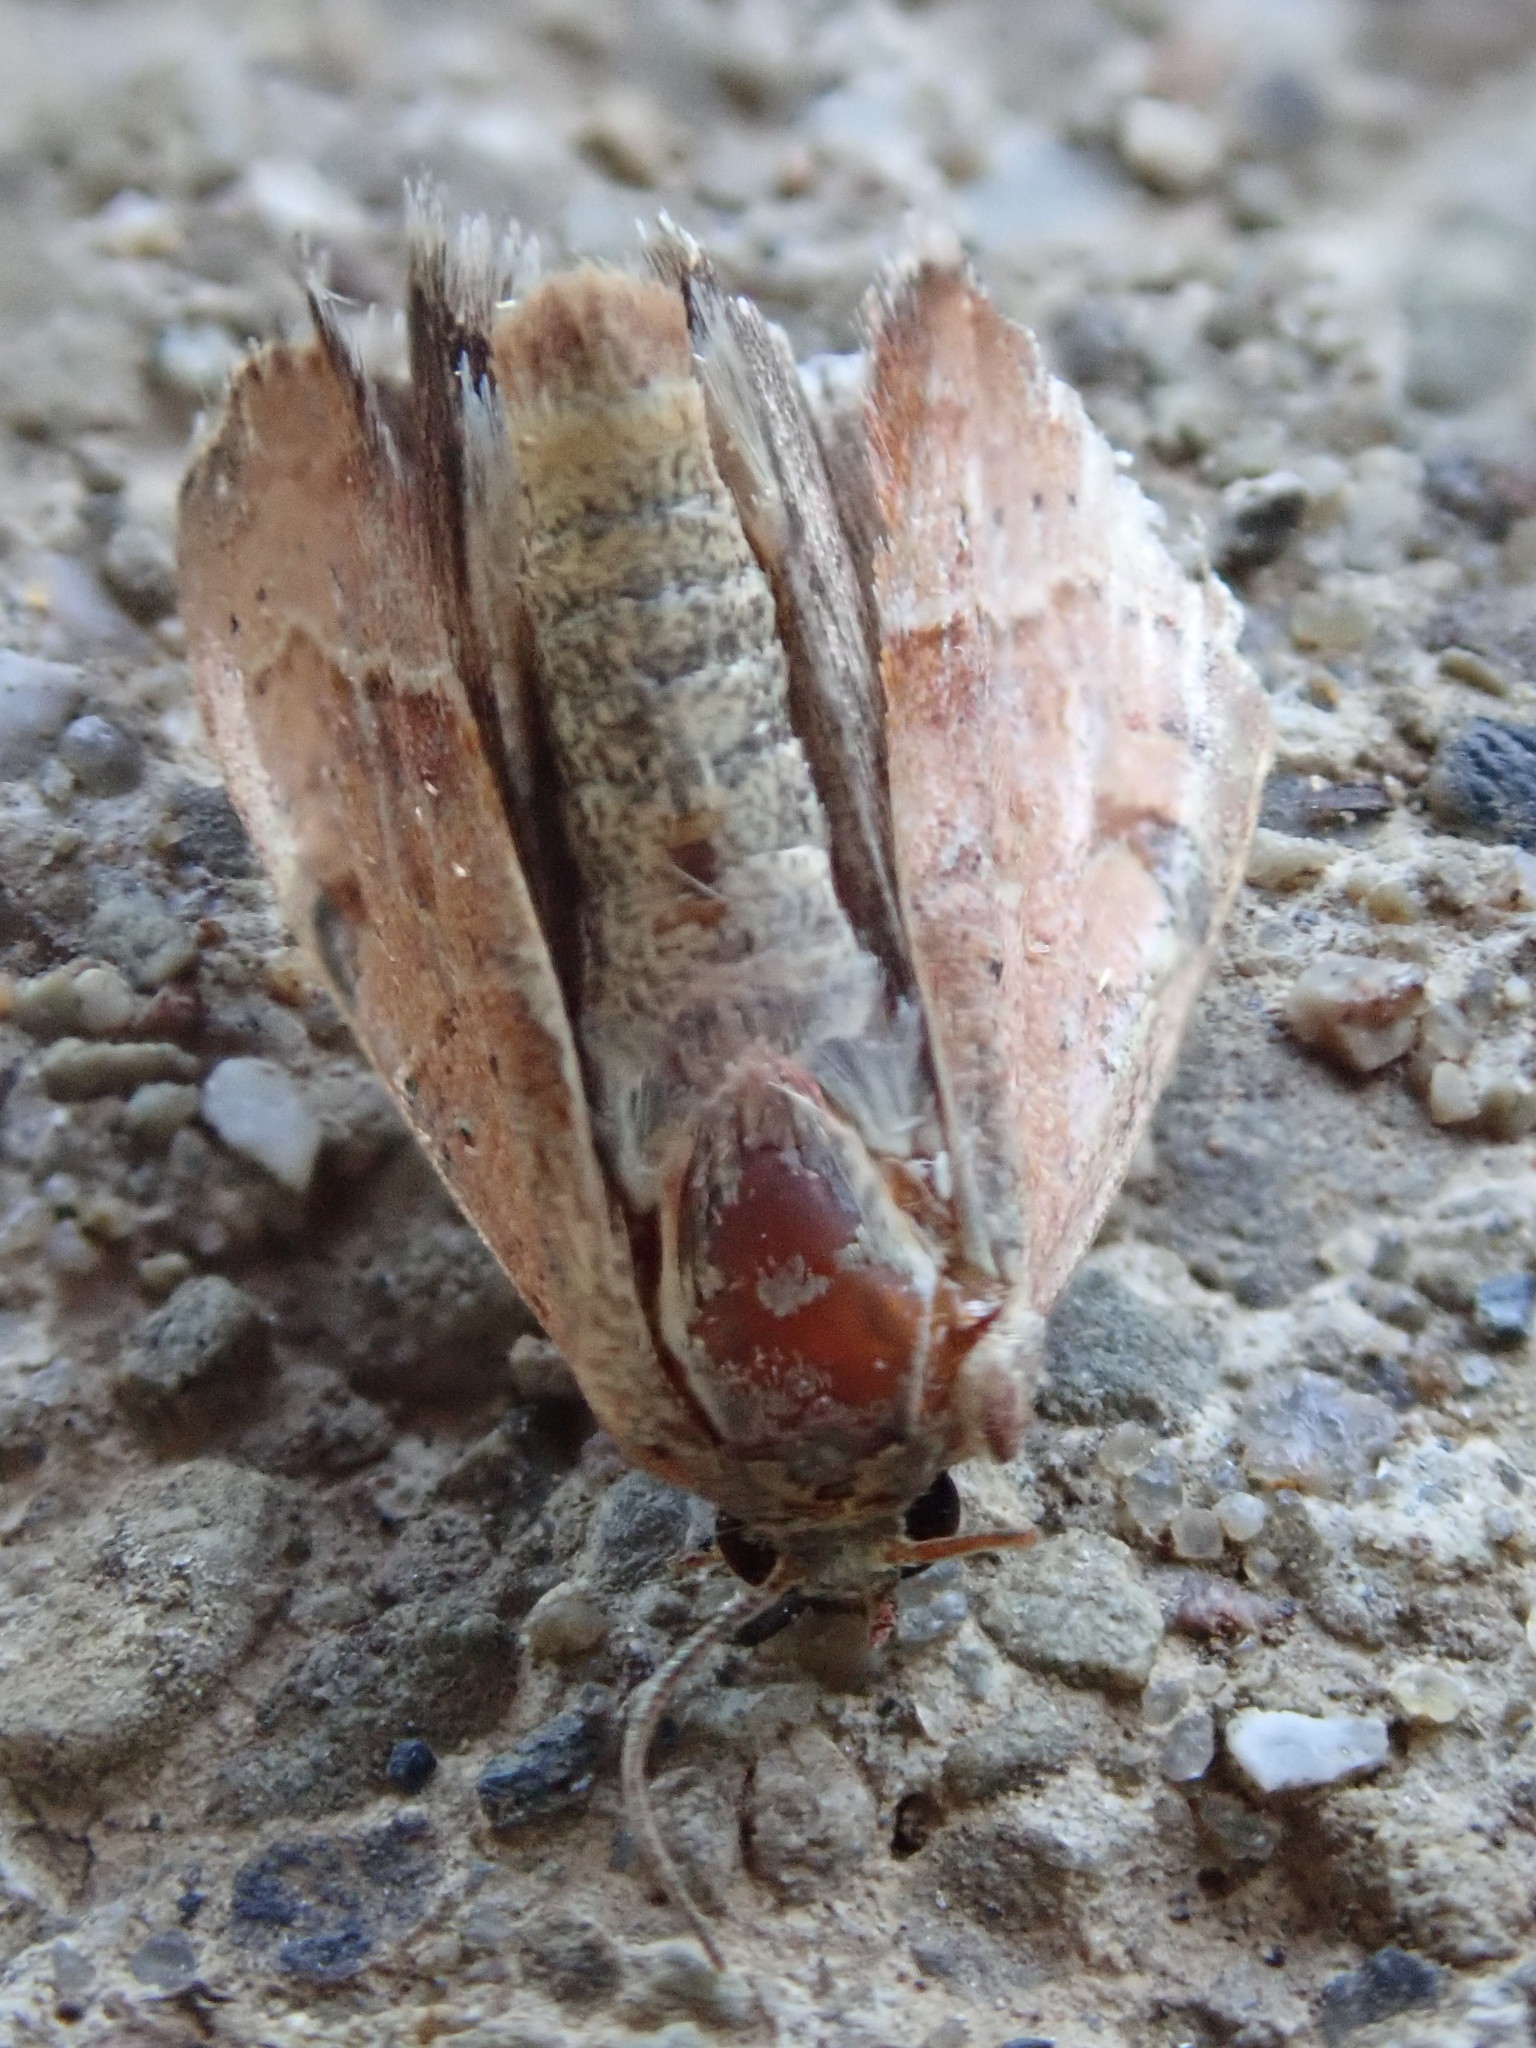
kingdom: Animalia
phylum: Arthropoda
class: Insecta
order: Lepidoptera
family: Noctuidae
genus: Galgula
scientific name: Galgula partita
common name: Wedgeling
